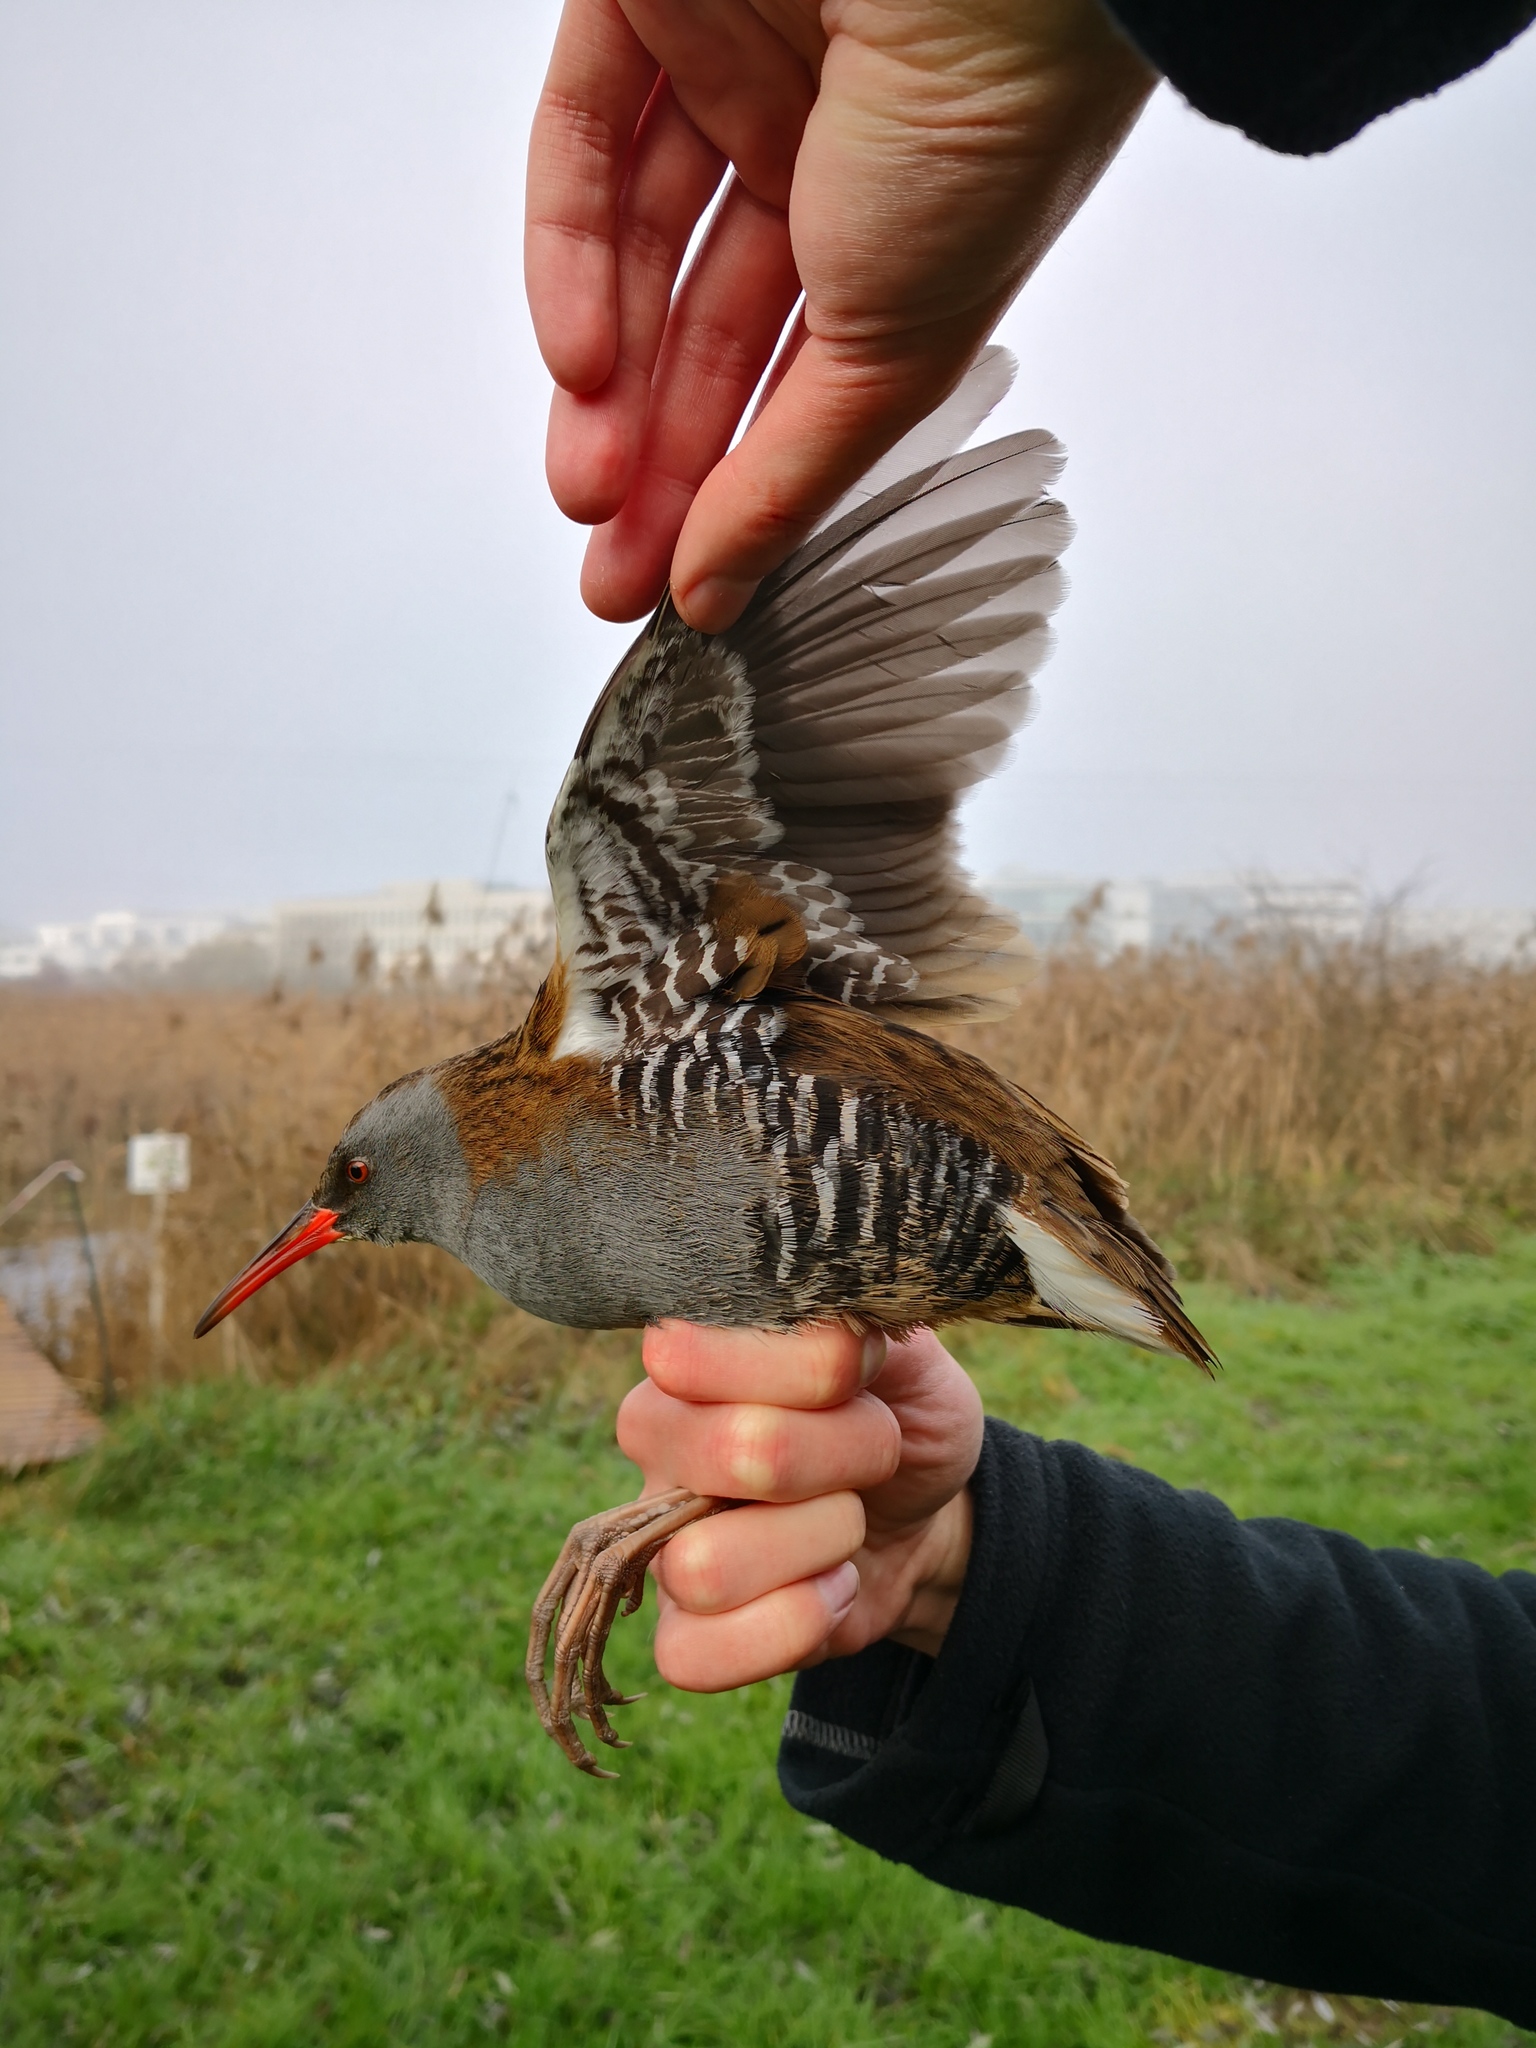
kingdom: Animalia
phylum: Chordata
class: Aves
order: Gruiformes
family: Rallidae
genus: Rallus
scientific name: Rallus aquaticus
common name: Water rail
